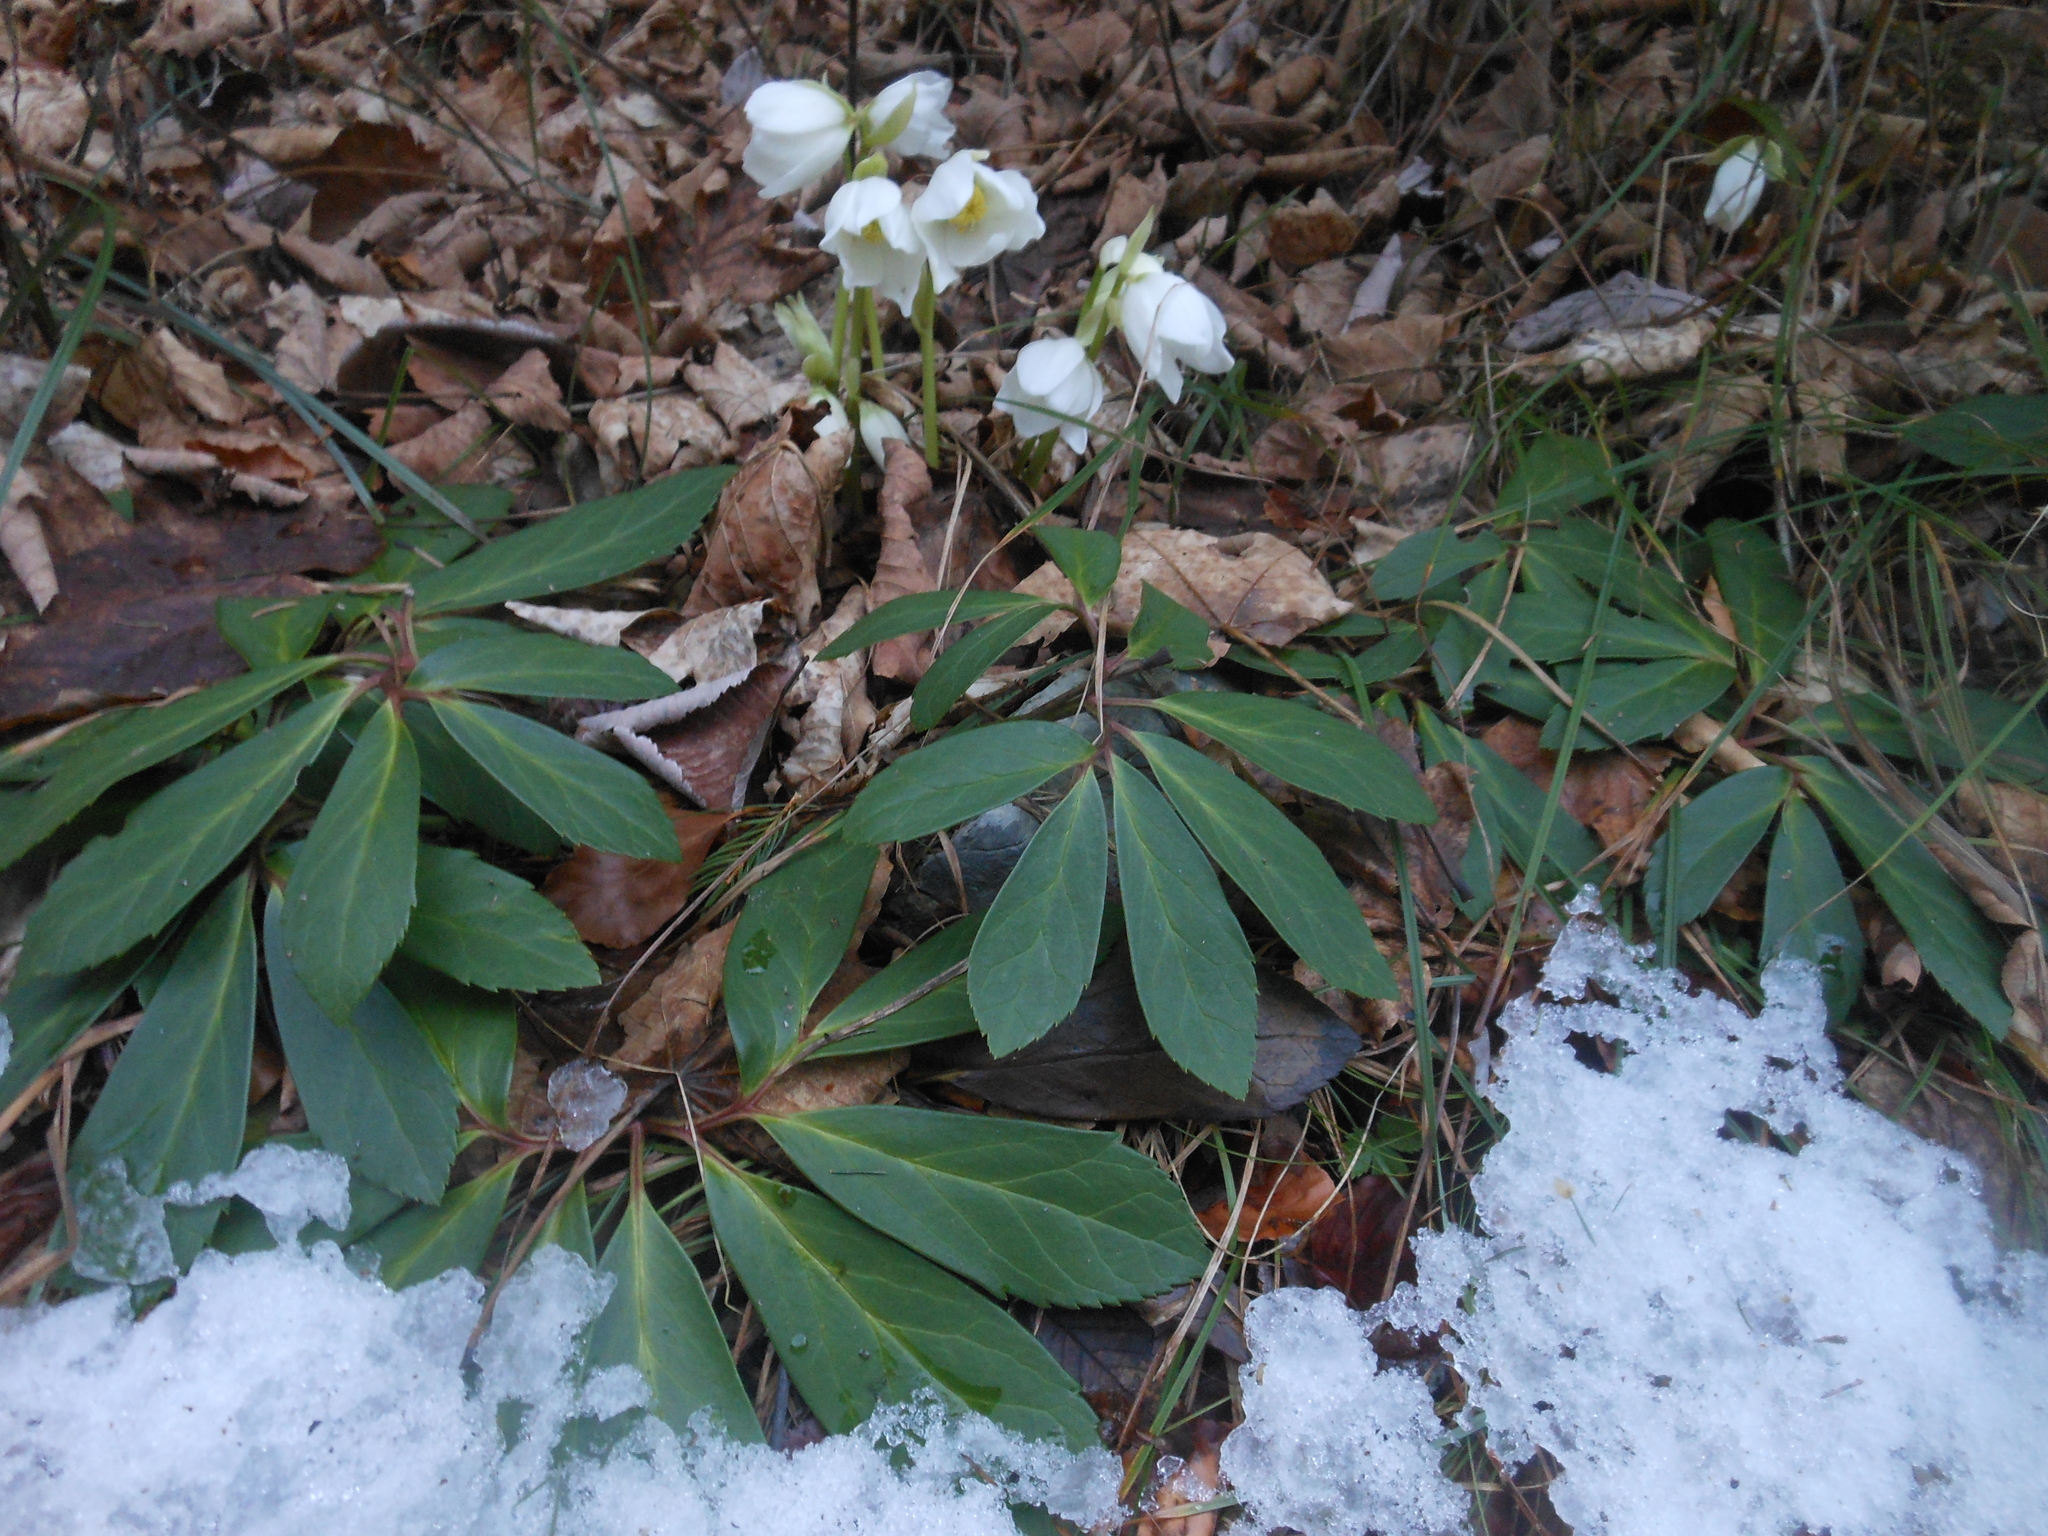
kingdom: Plantae
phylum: Tracheophyta
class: Magnoliopsida
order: Ranunculales
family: Ranunculaceae
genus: Helleborus
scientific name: Helleborus niger
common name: Black hellebore
